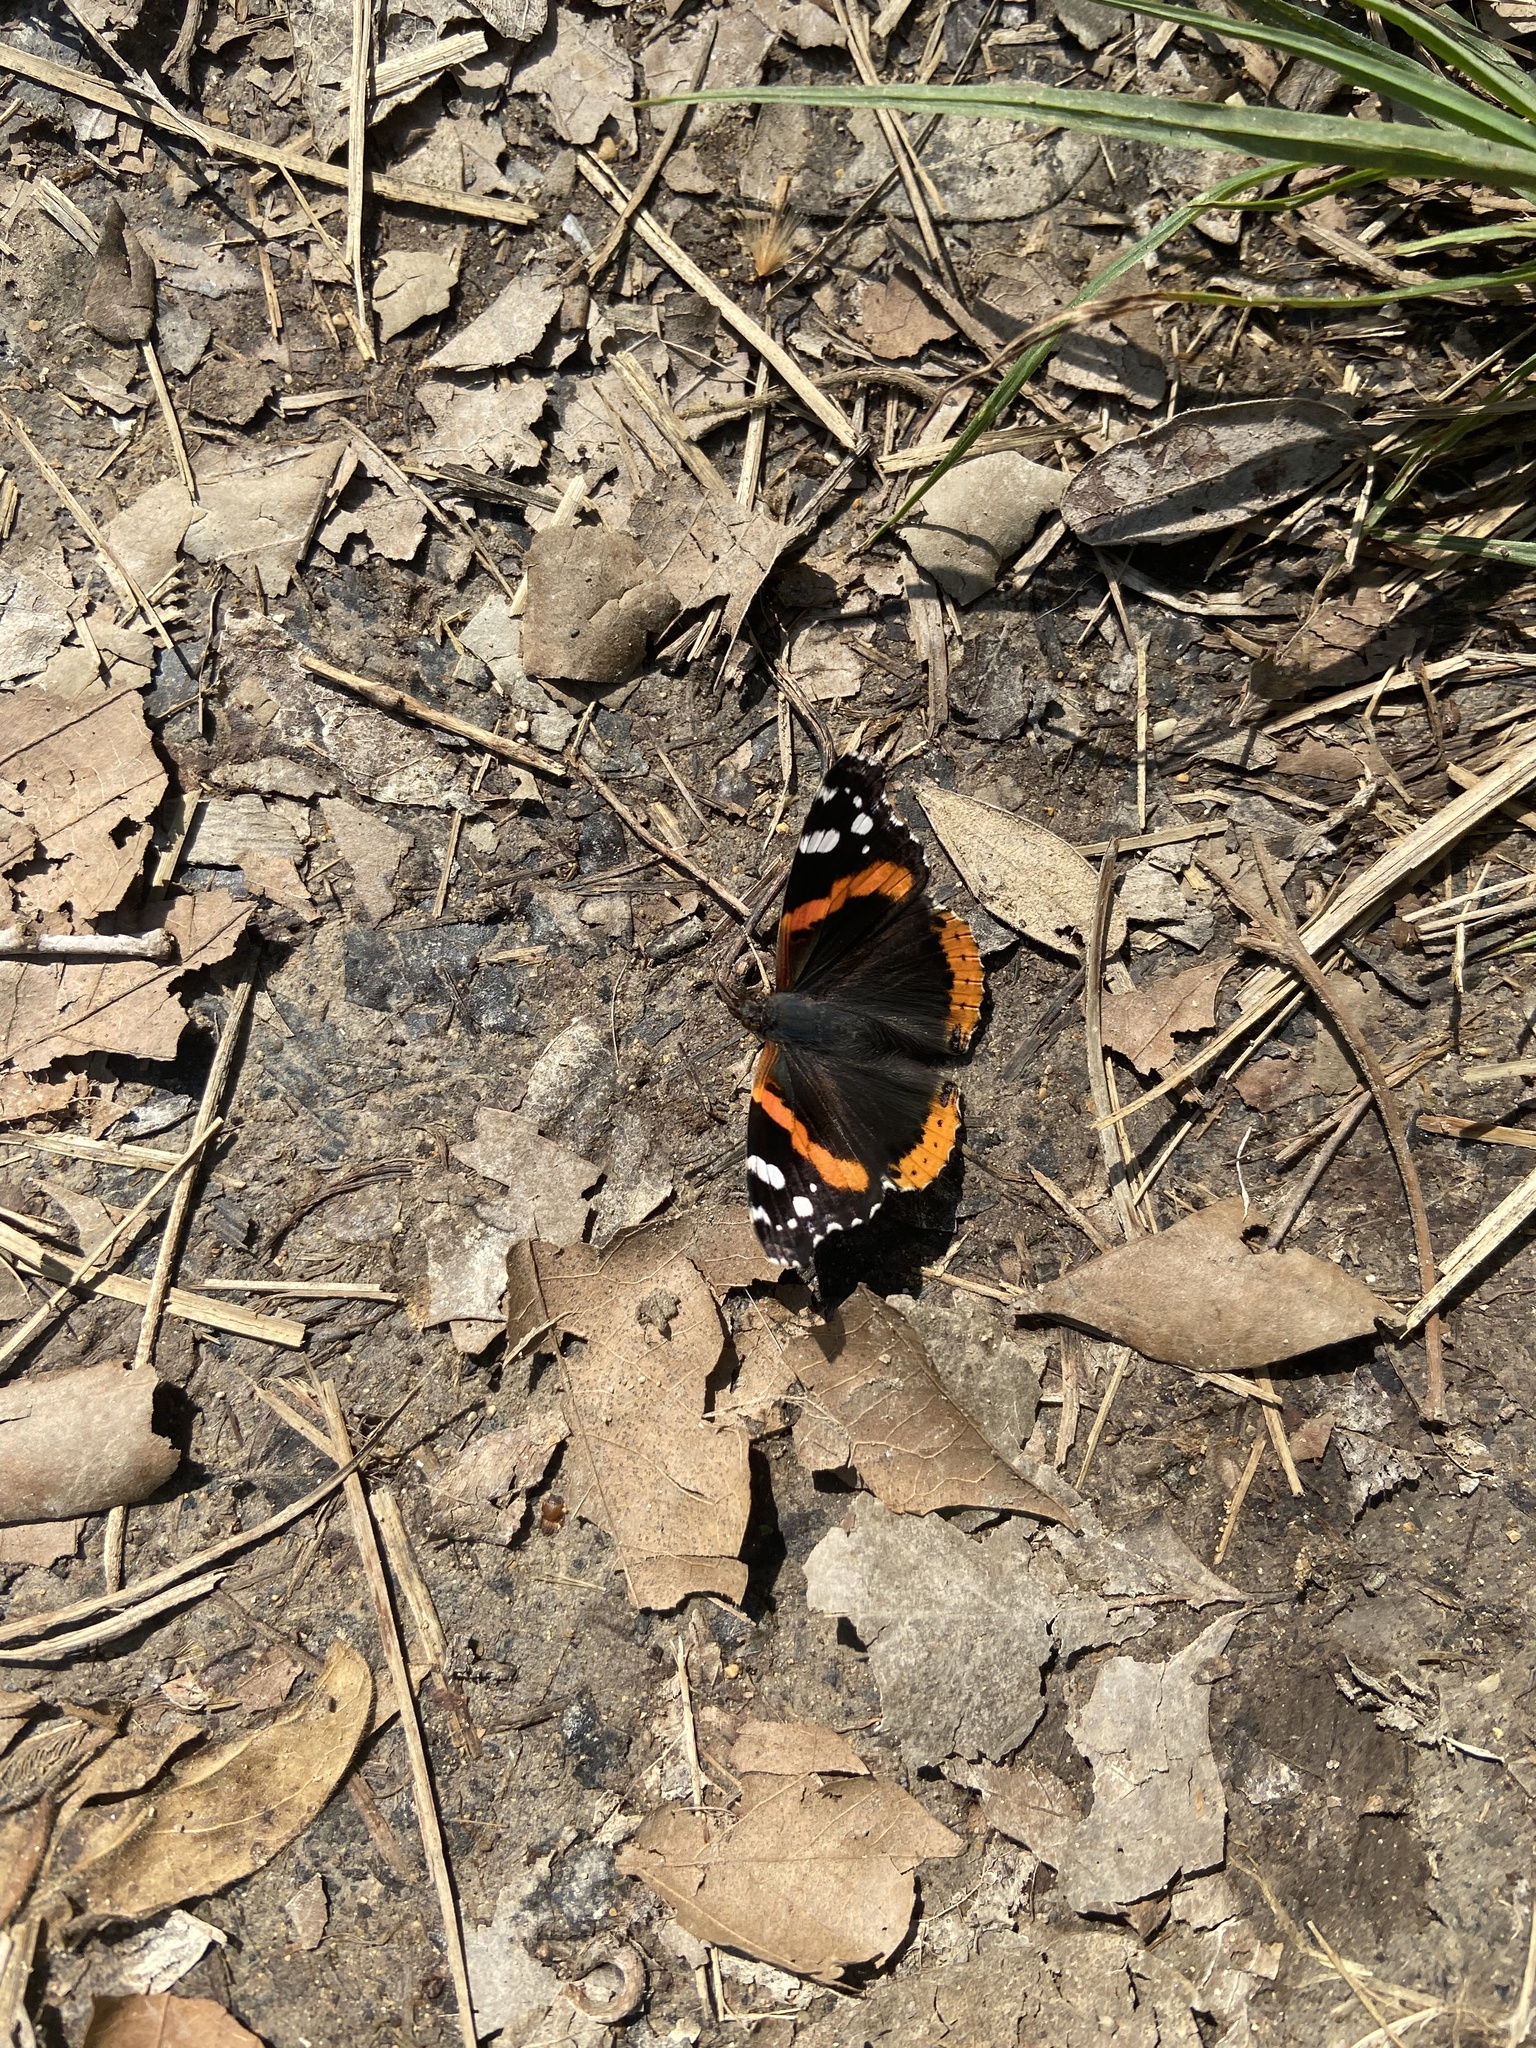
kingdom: Animalia
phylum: Arthropoda
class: Insecta
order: Lepidoptera
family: Nymphalidae
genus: Vanessa
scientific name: Vanessa atalanta
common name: Red admiral
